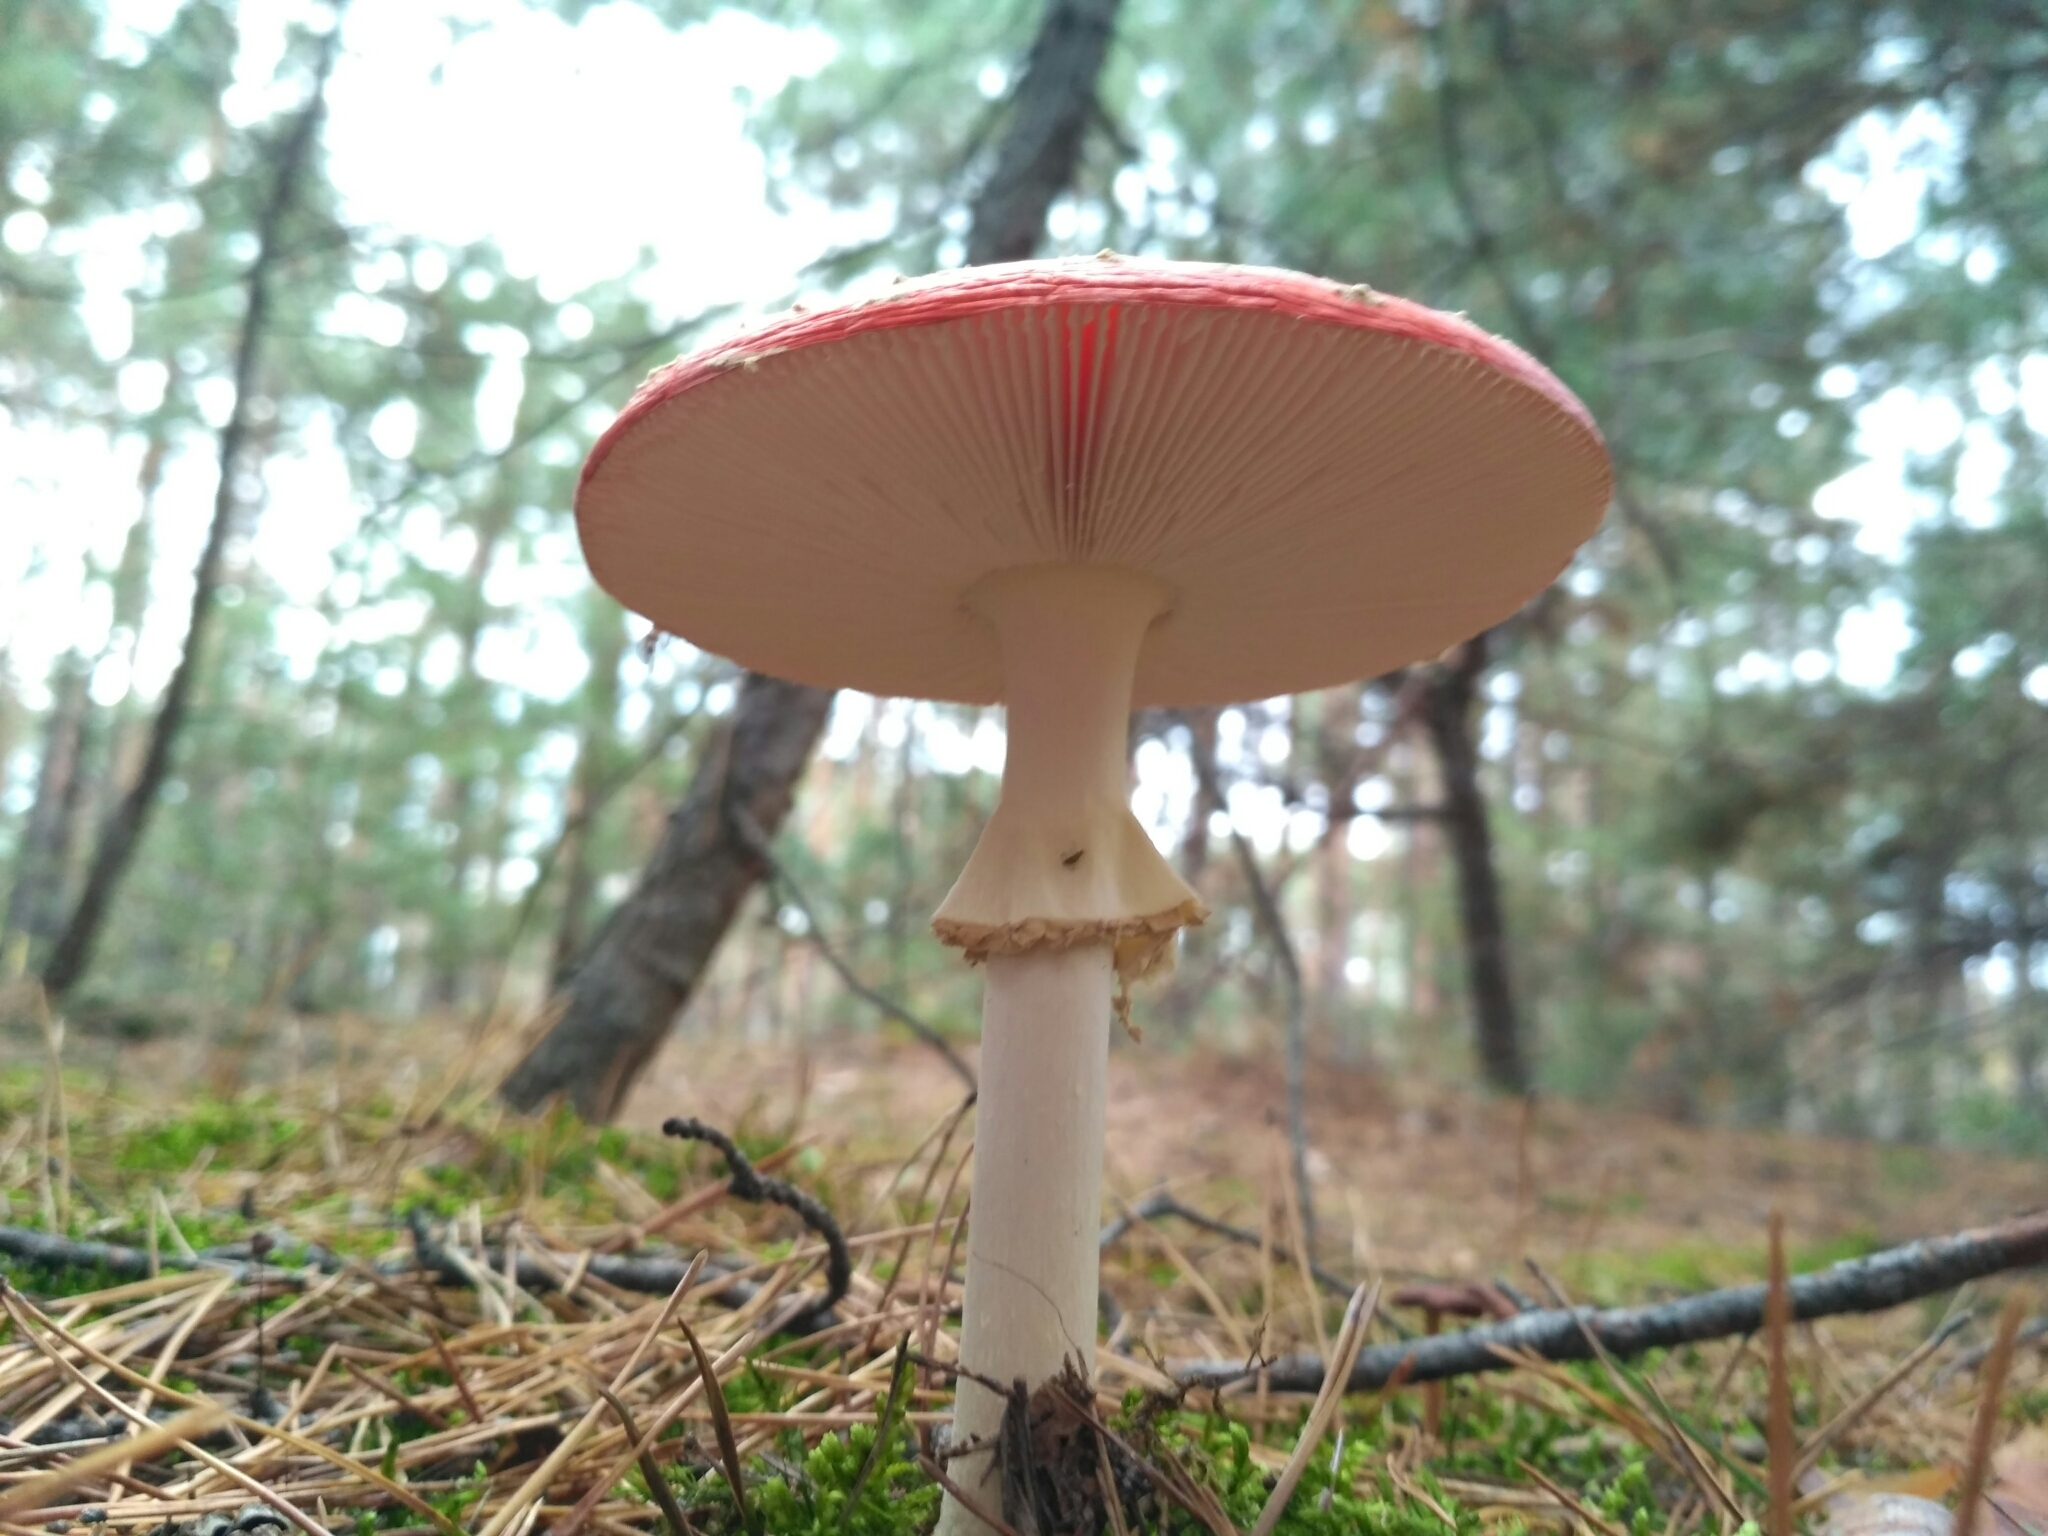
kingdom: Fungi
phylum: Basidiomycota
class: Agaricomycetes
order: Agaricales
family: Amanitaceae
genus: Amanita
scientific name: Amanita muscaria
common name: Fly agaric
